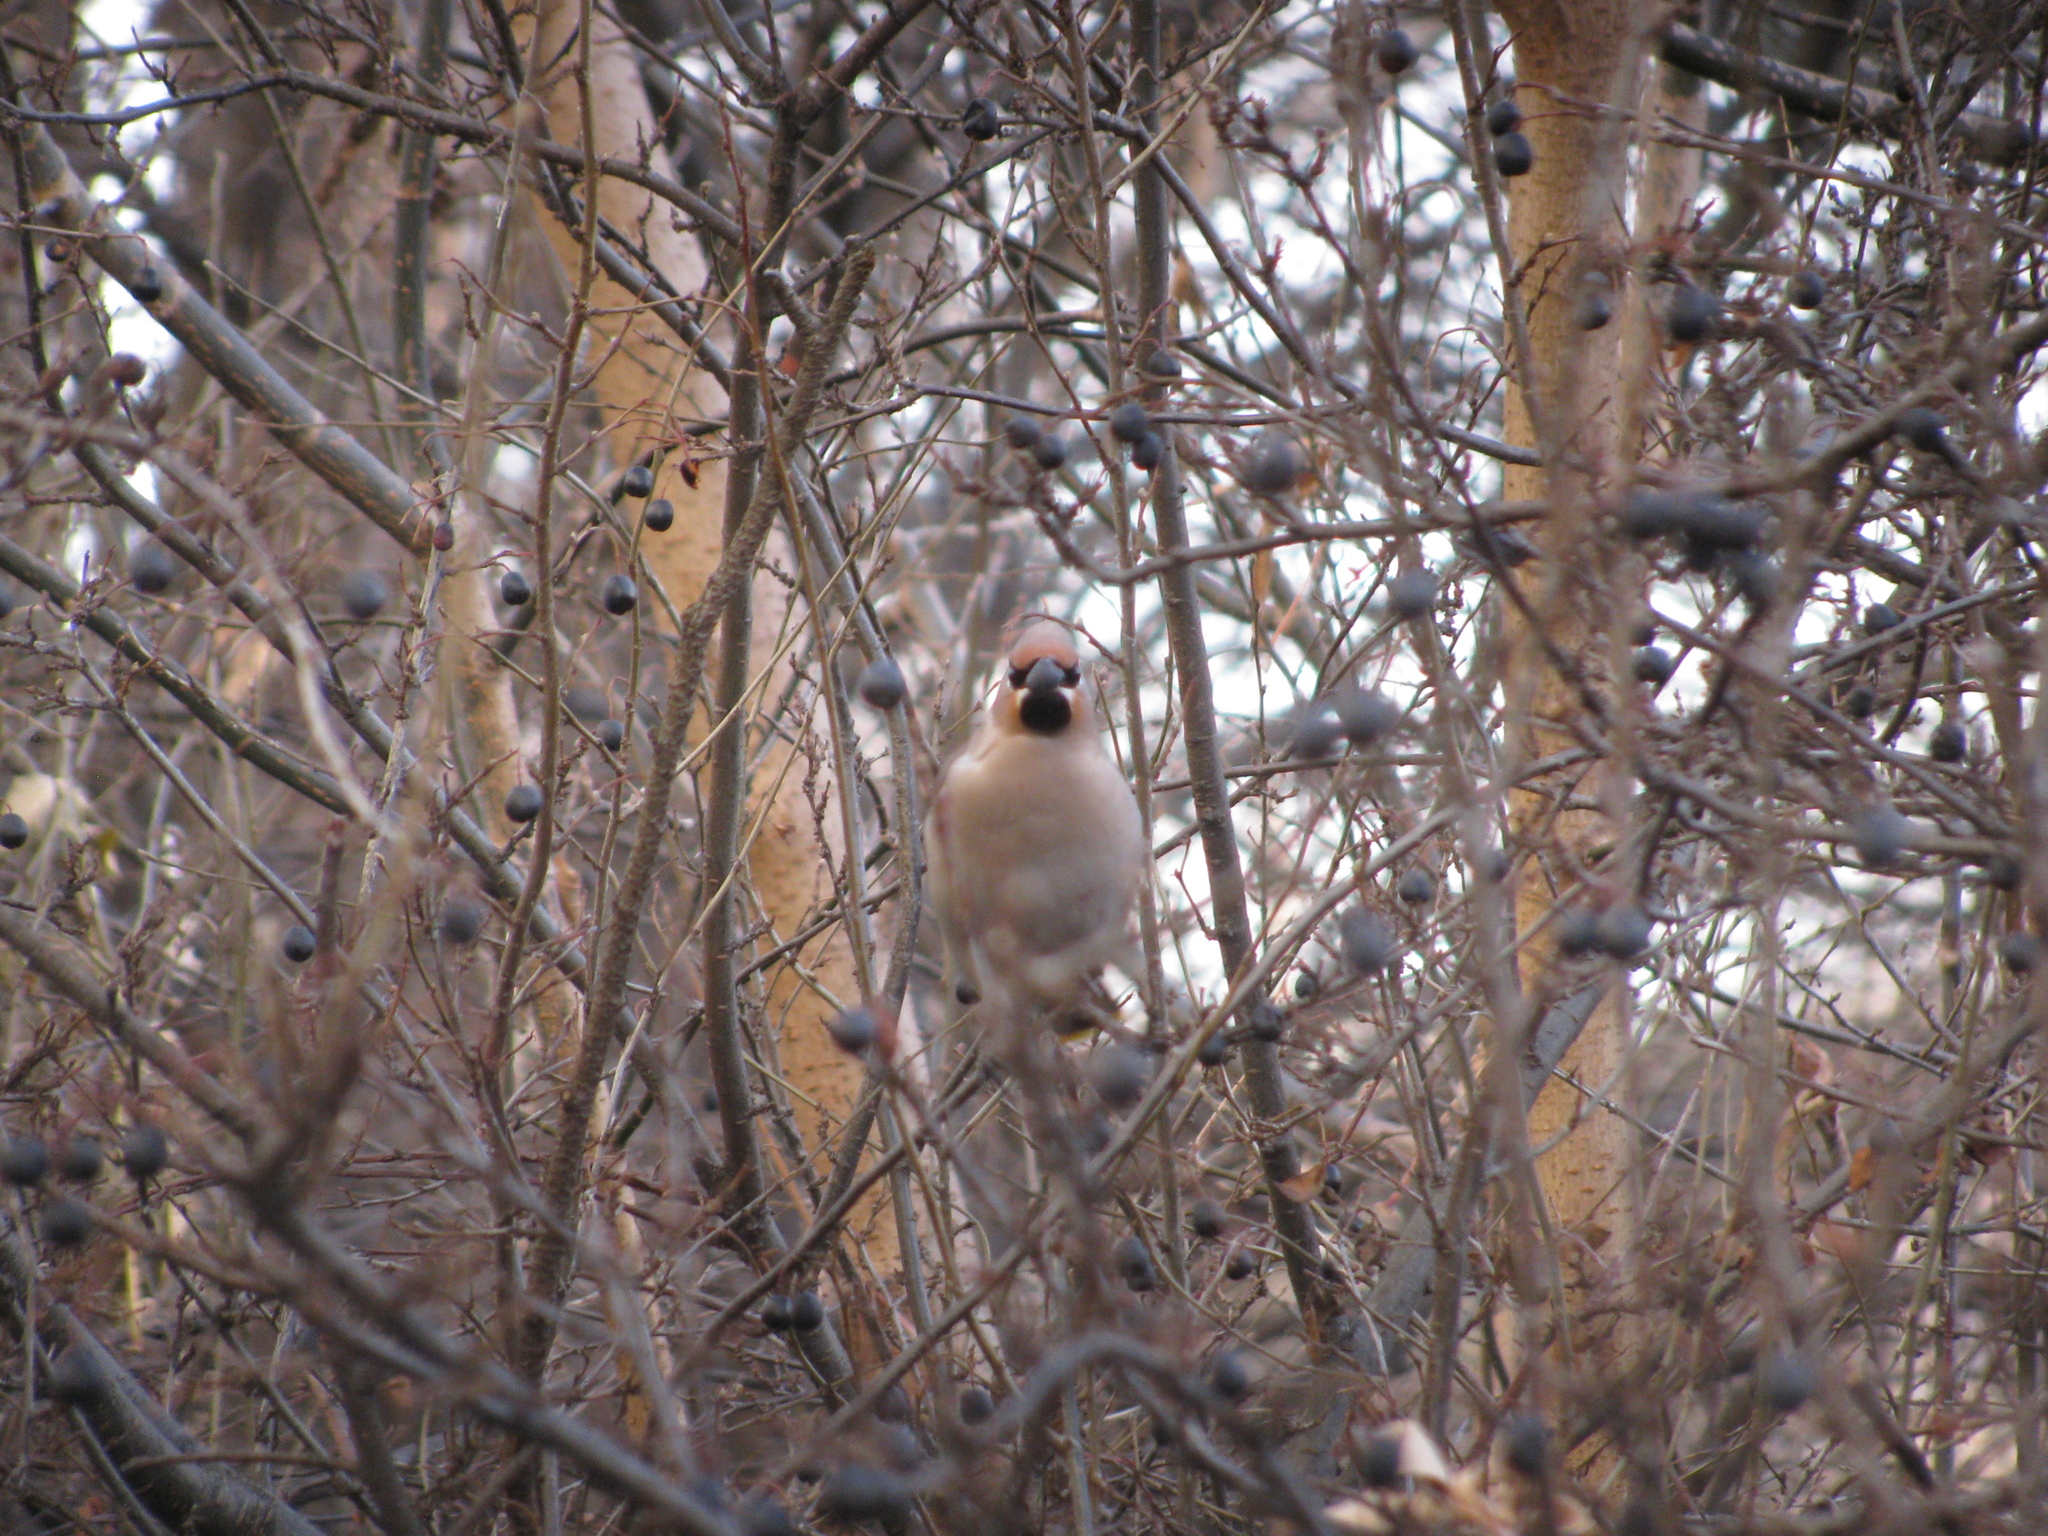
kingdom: Animalia
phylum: Chordata
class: Aves
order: Passeriformes
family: Bombycillidae
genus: Bombycilla
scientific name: Bombycilla garrulus
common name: Bohemian waxwing
